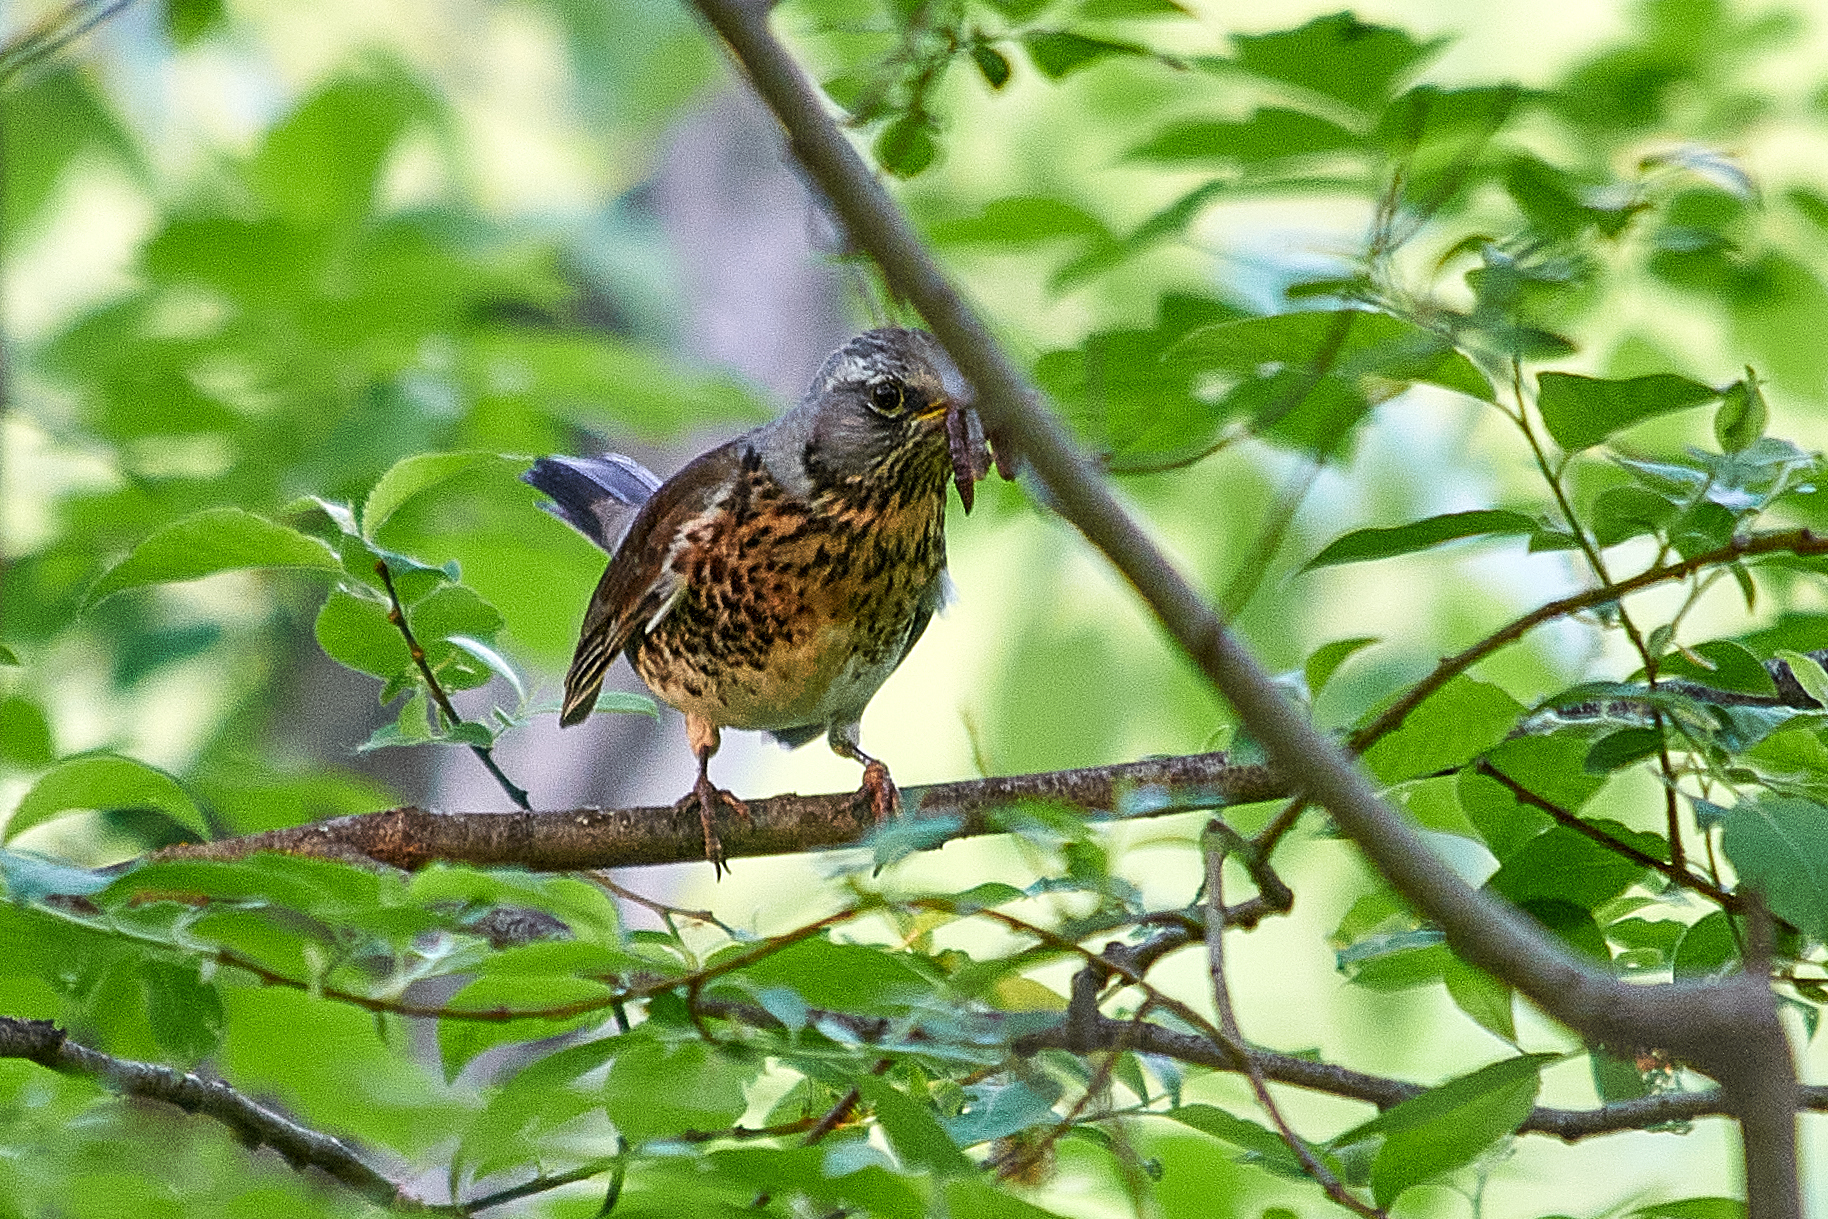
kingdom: Animalia
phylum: Chordata
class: Aves
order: Passeriformes
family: Turdidae
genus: Turdus
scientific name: Turdus pilaris
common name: Fieldfare
